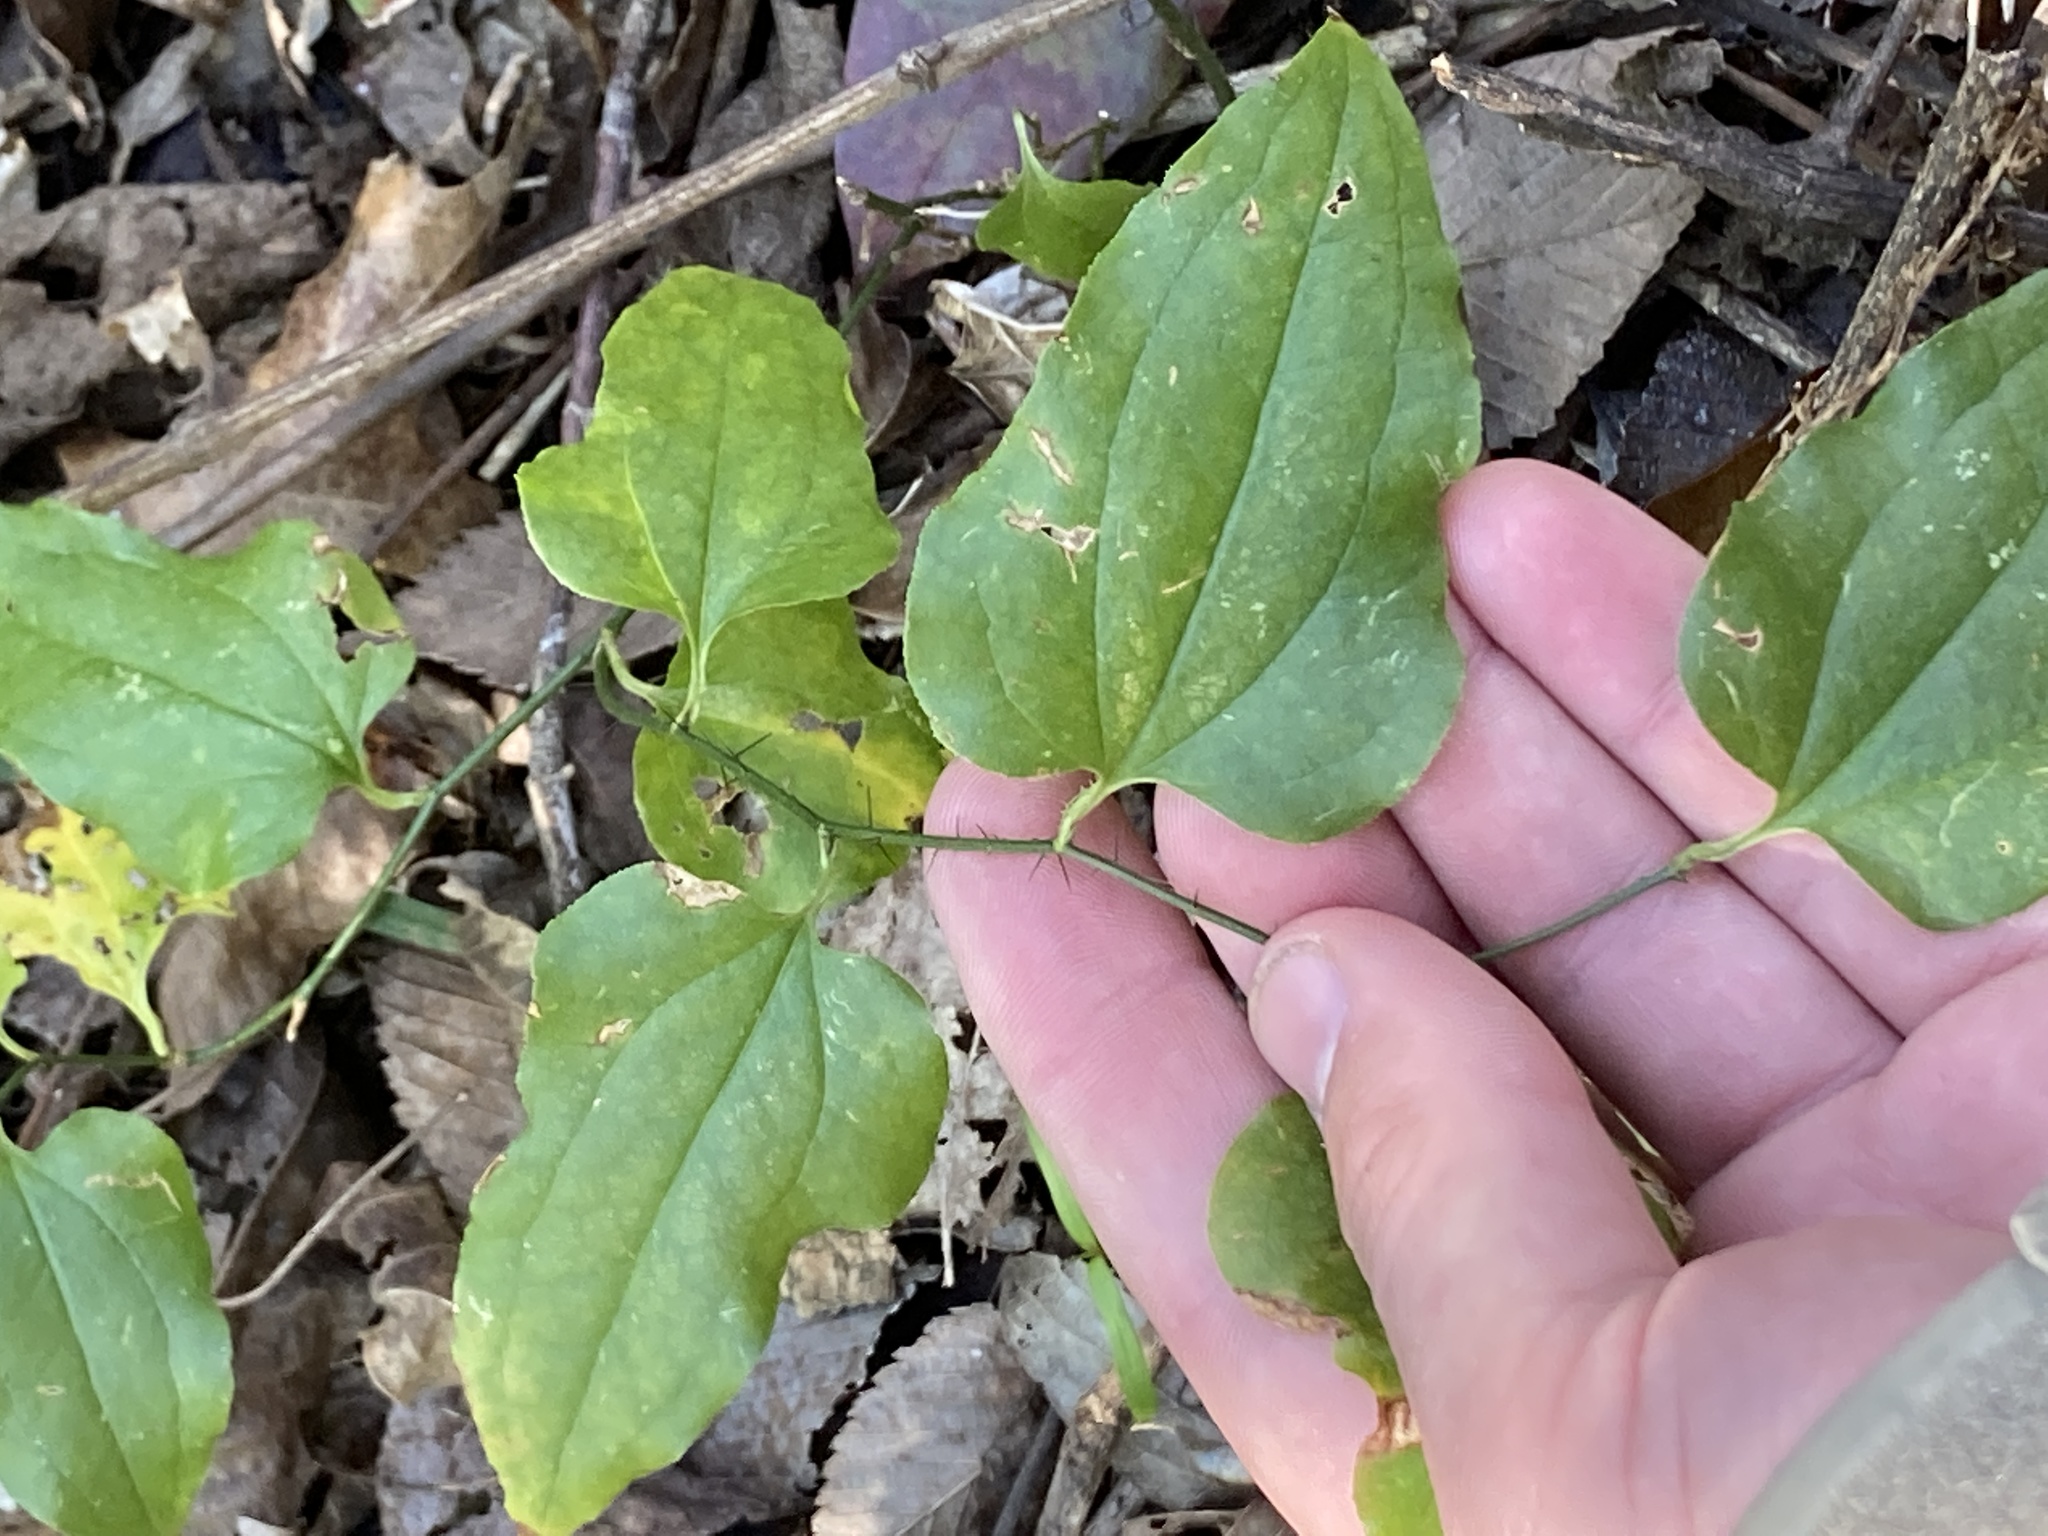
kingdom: Plantae
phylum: Tracheophyta
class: Liliopsida
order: Liliales
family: Smilacaceae
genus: Smilax
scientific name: Smilax tamnoides
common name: Hellfetter
